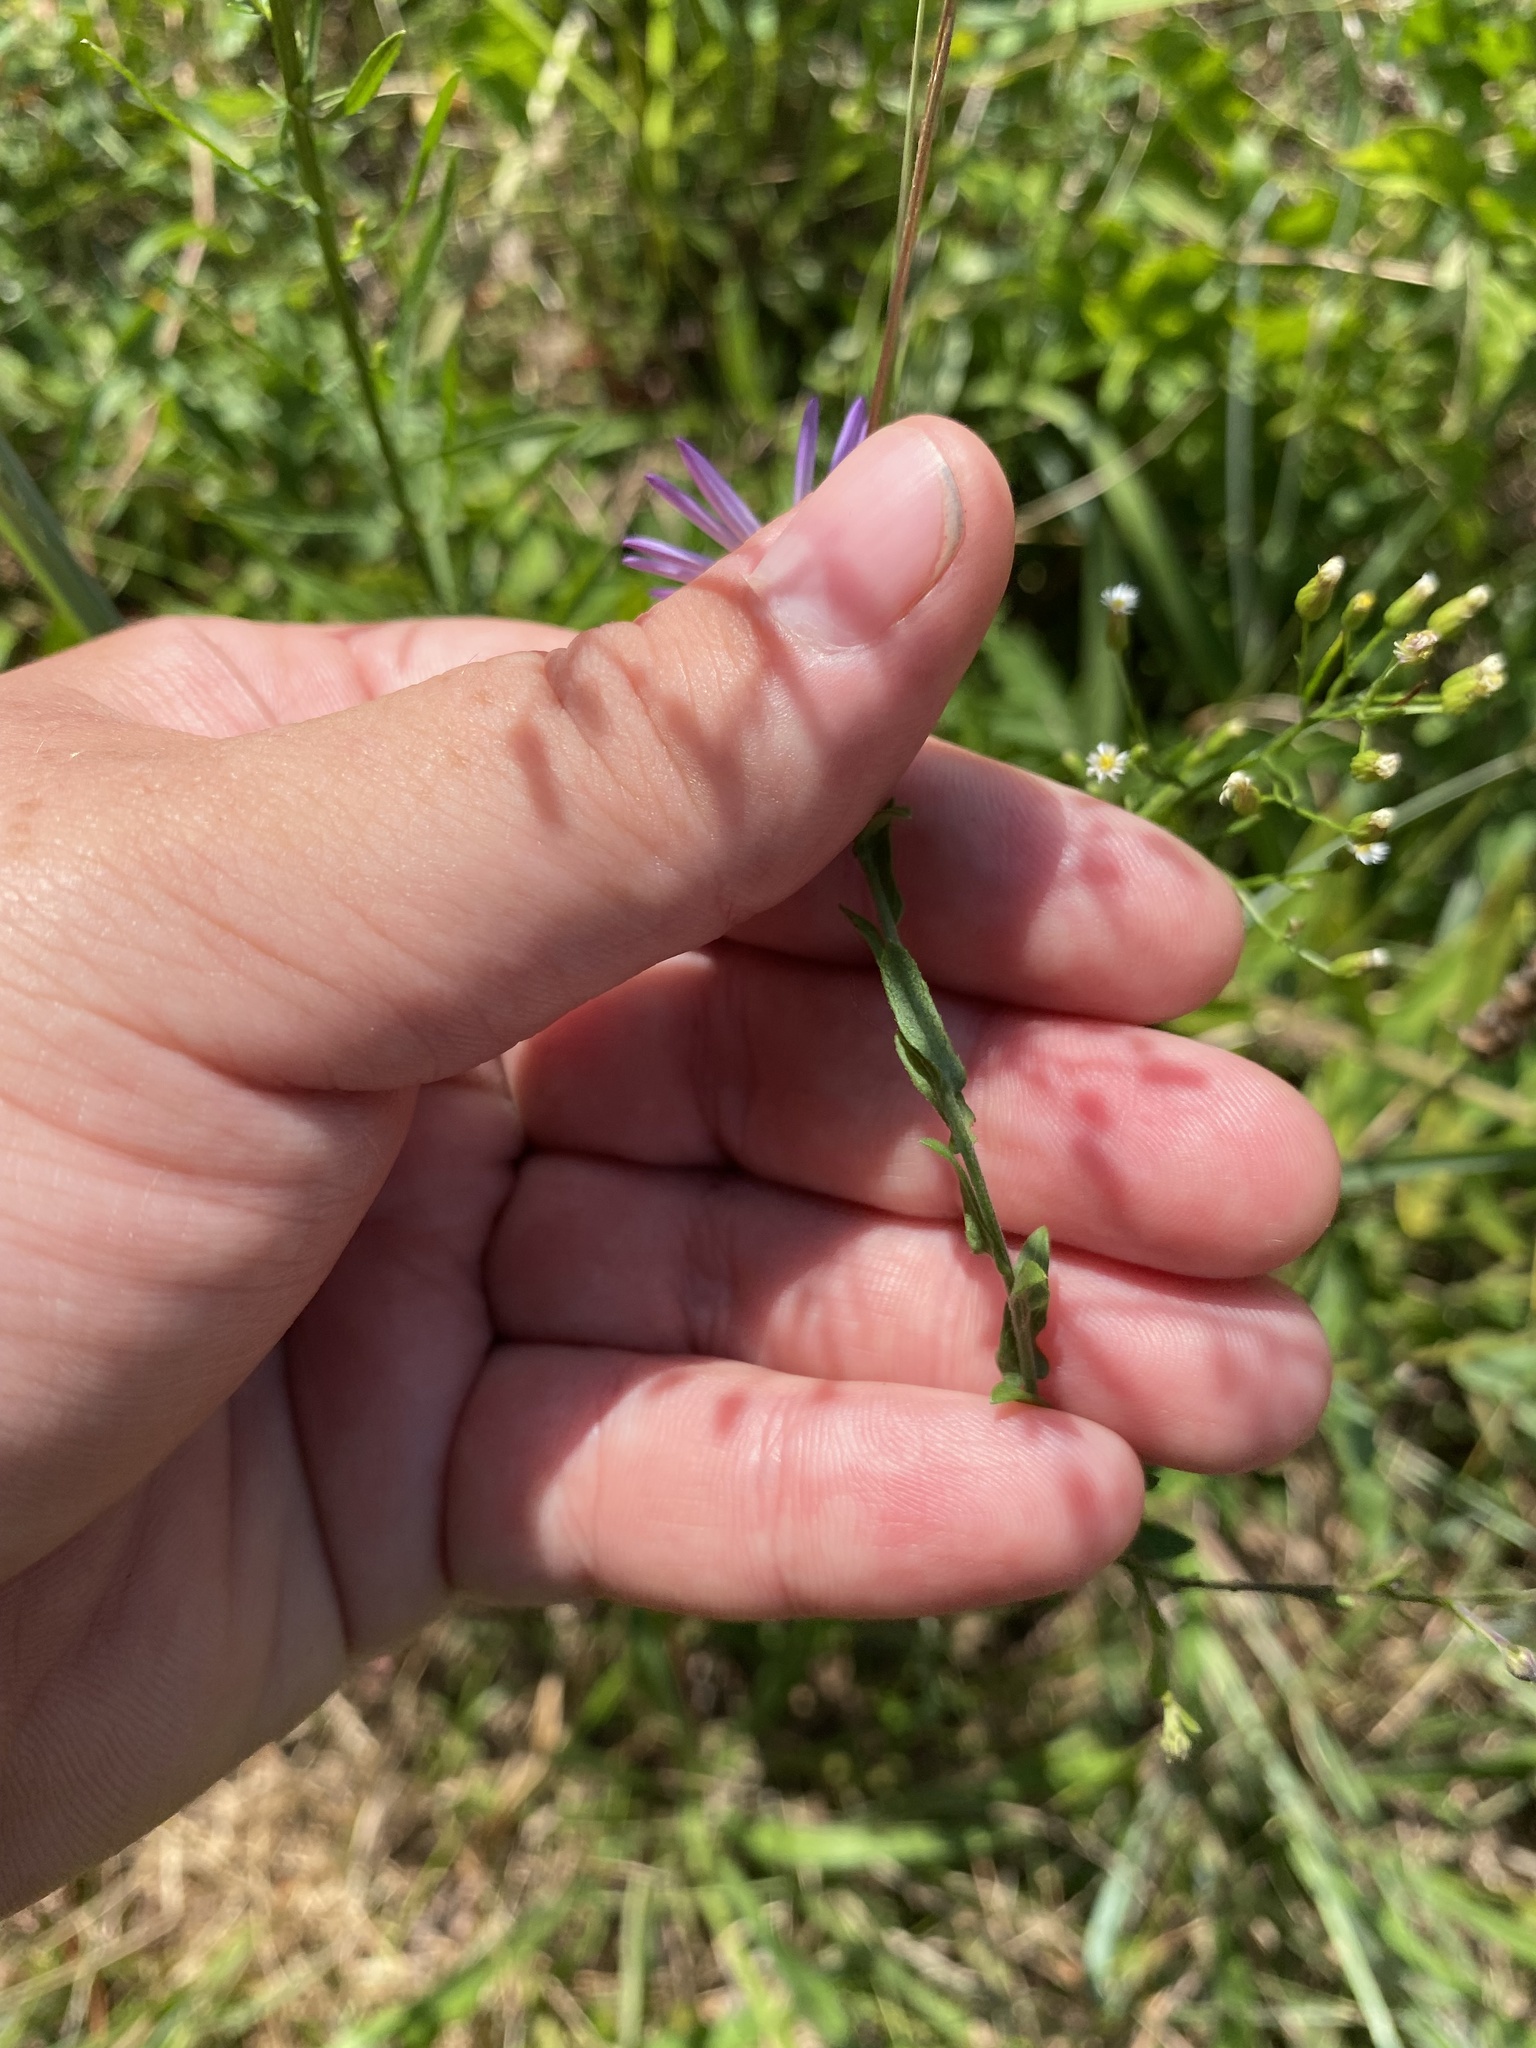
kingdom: Plantae
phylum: Tracheophyta
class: Magnoliopsida
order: Asterales
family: Asteraceae
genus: Symphyotrichum
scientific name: Symphyotrichum patens
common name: Late purple aster
